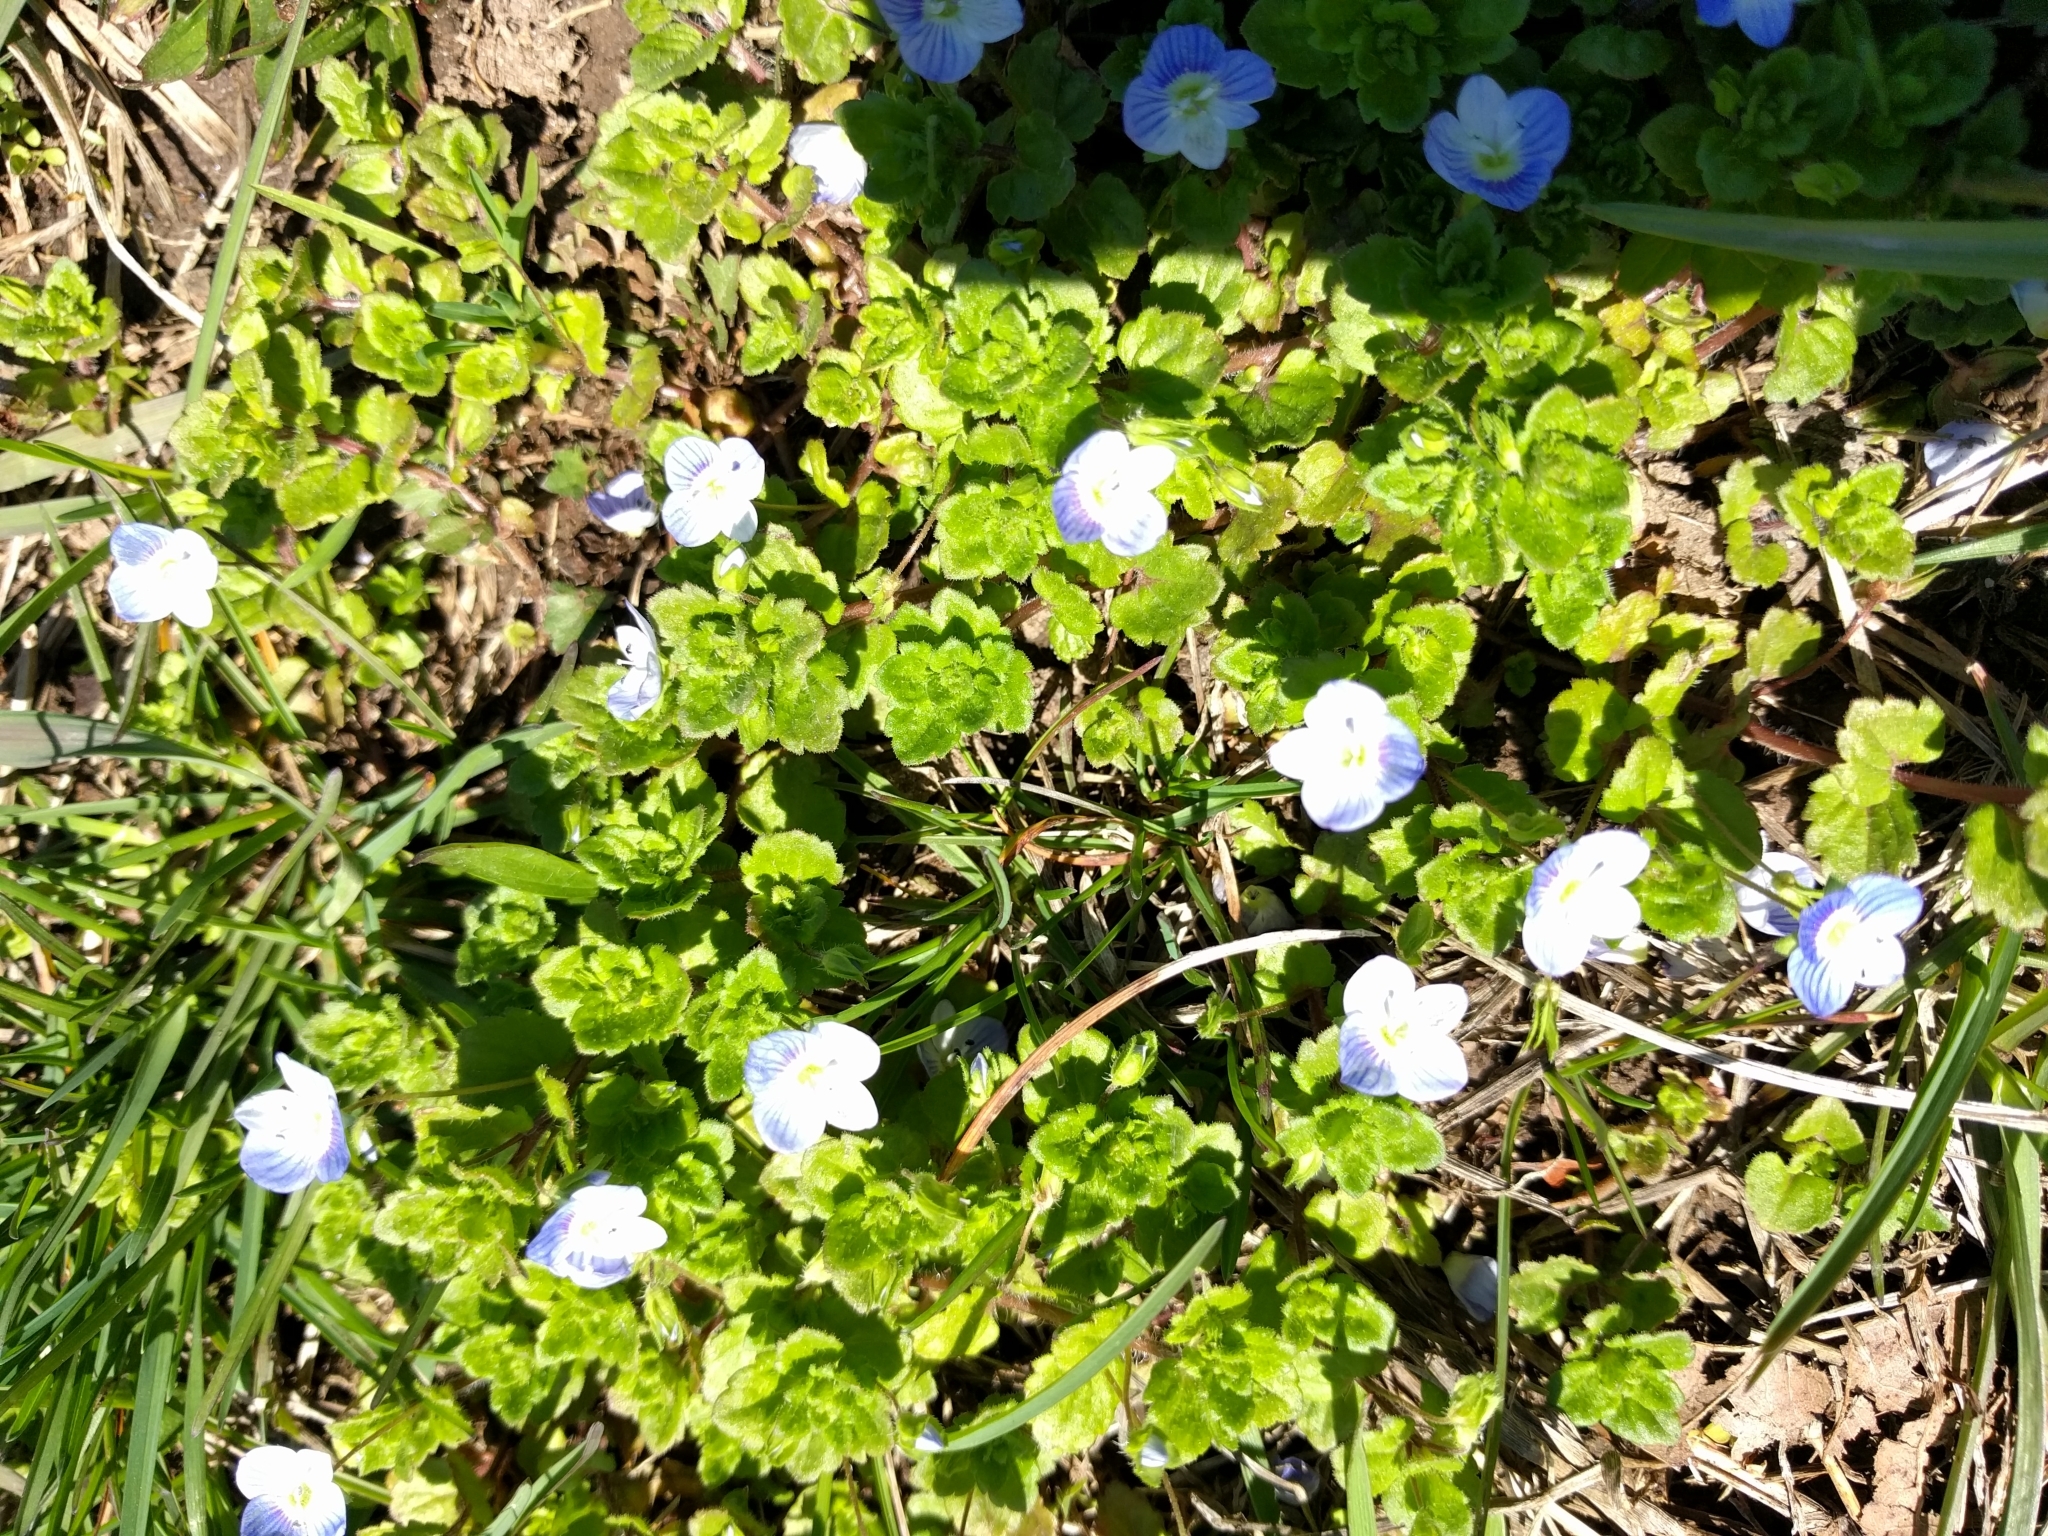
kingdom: Plantae
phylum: Tracheophyta
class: Magnoliopsida
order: Lamiales
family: Plantaginaceae
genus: Veronica
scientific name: Veronica persica
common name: Common field-speedwell
